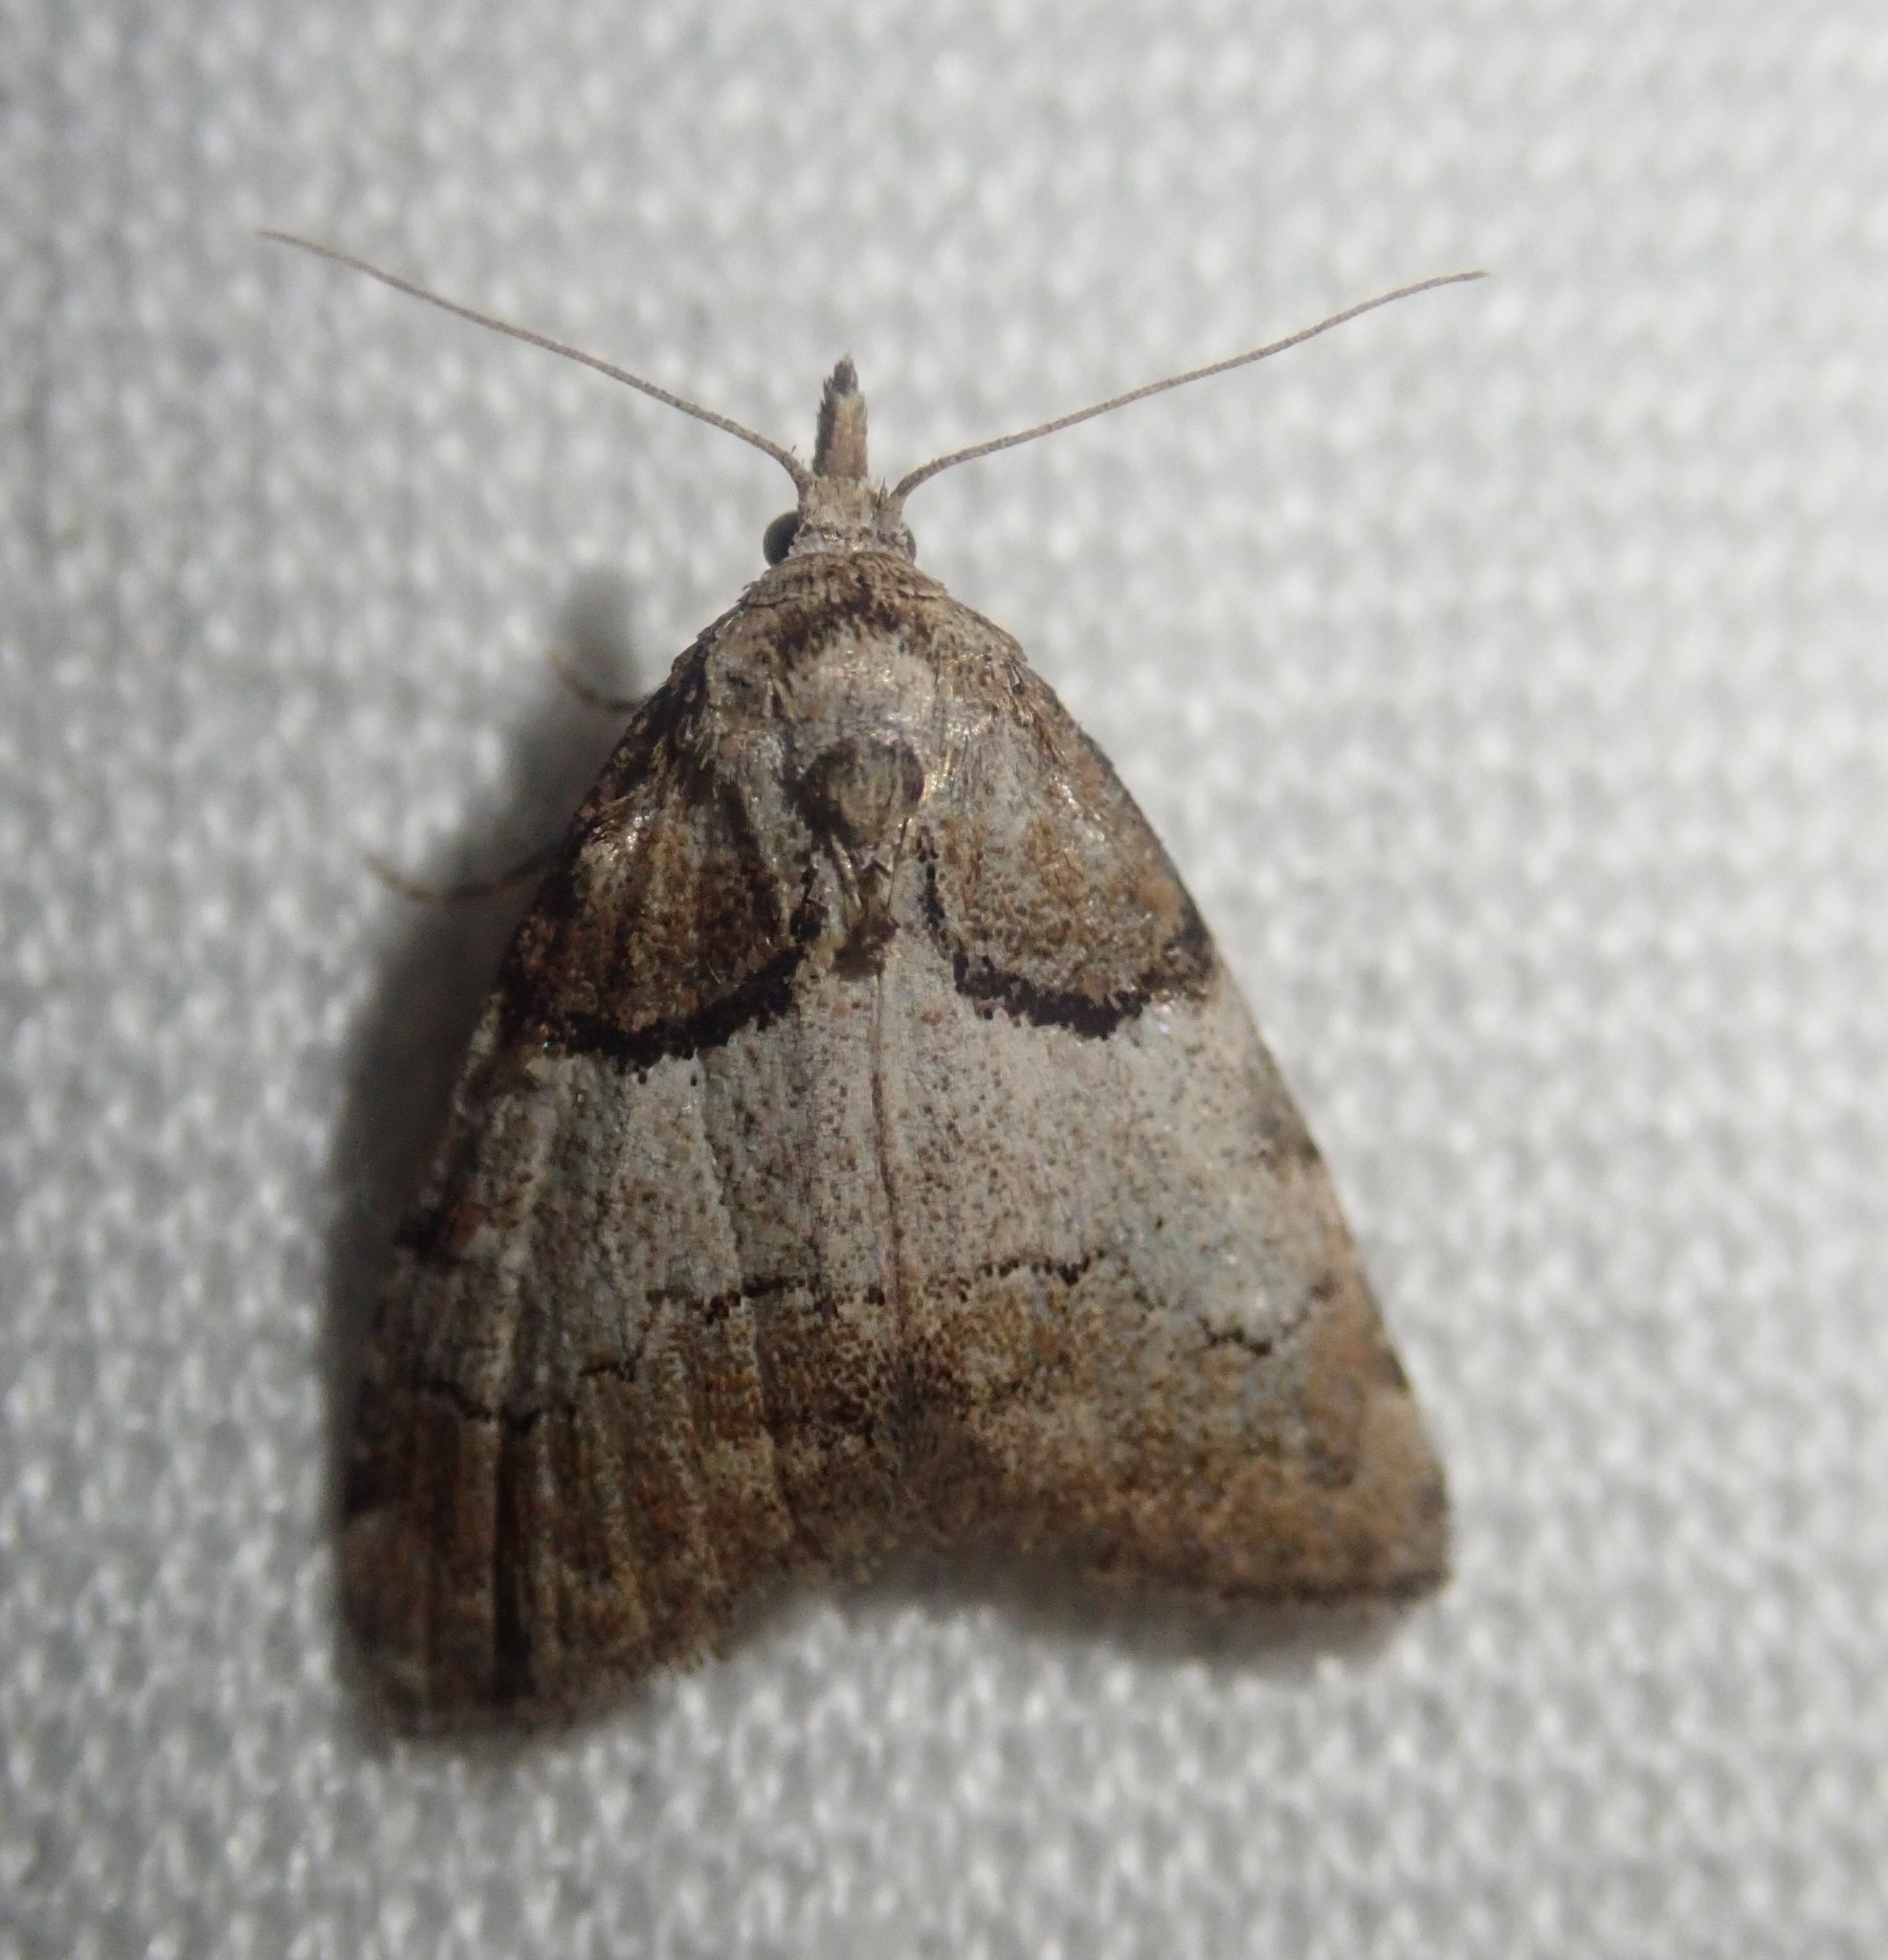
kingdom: Animalia
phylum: Arthropoda
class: Insecta
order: Lepidoptera
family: Nolidae
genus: Nola
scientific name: Nola cucullatella
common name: Short-cloaked moth
